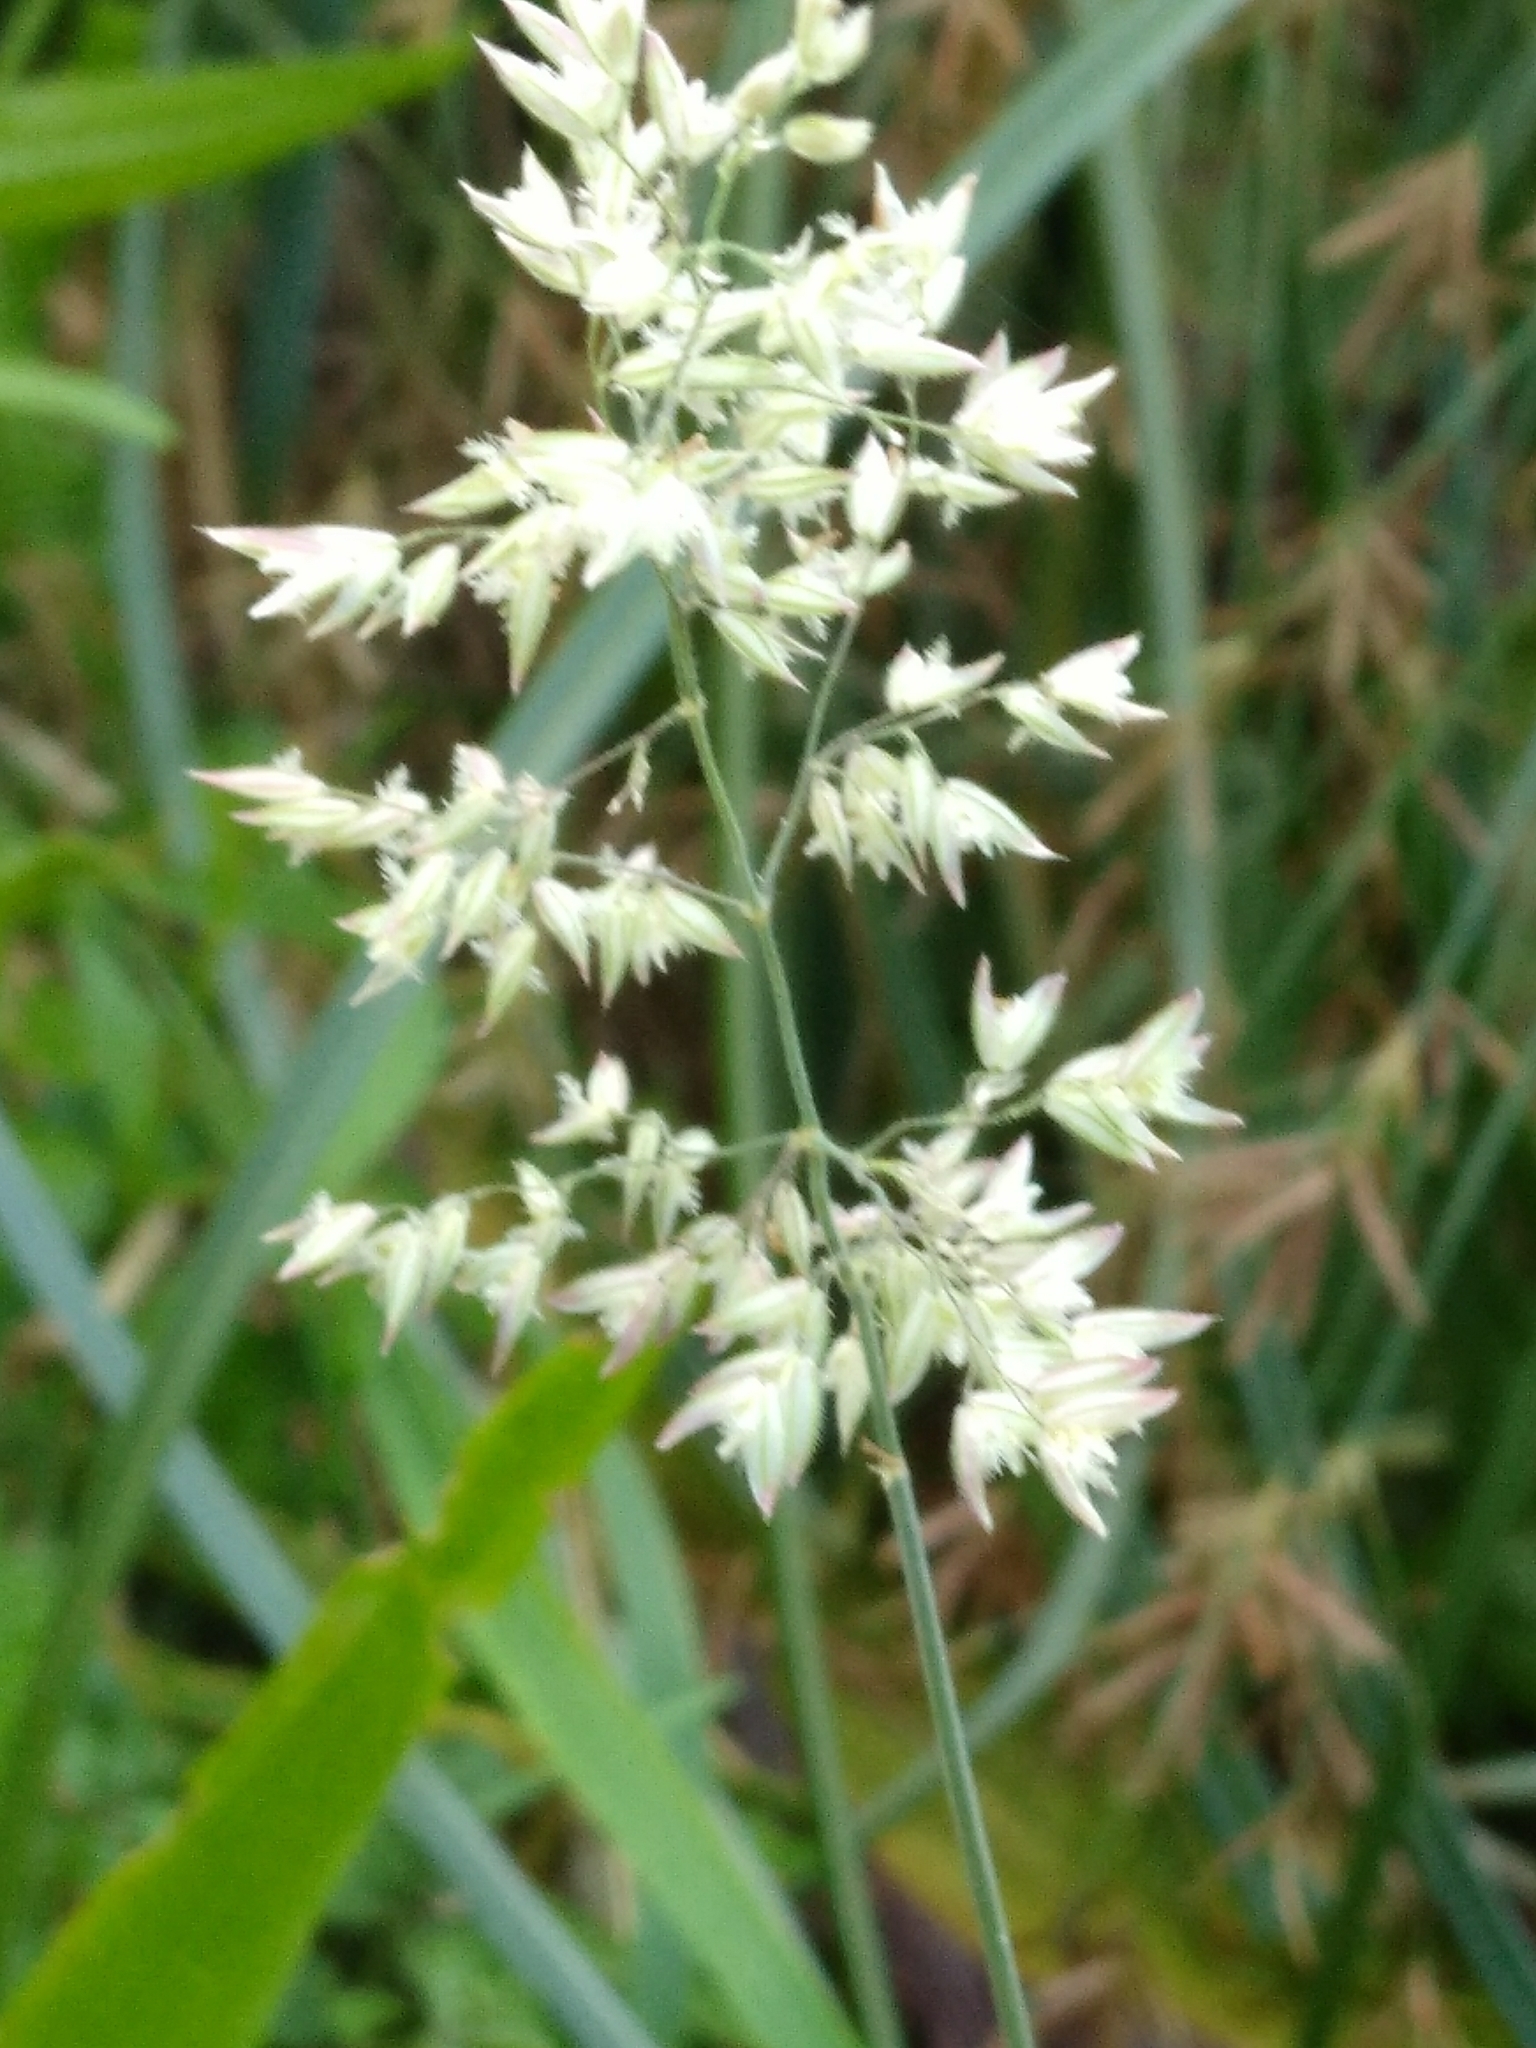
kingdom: Plantae
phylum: Tracheophyta
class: Liliopsida
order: Poales
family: Poaceae
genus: Holcus
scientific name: Holcus lanatus
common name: Yorkshire-fog
